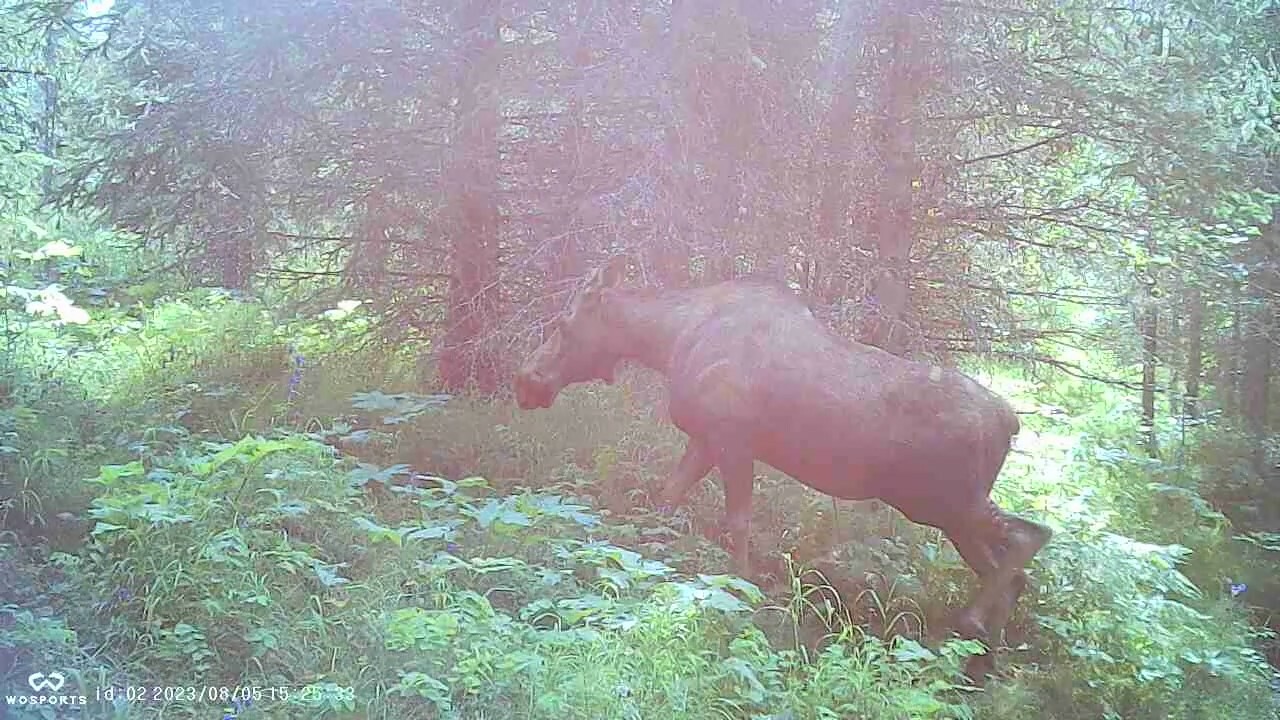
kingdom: Animalia
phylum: Chordata
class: Mammalia
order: Artiodactyla
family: Cervidae
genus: Alces
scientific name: Alces alces
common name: Moose
